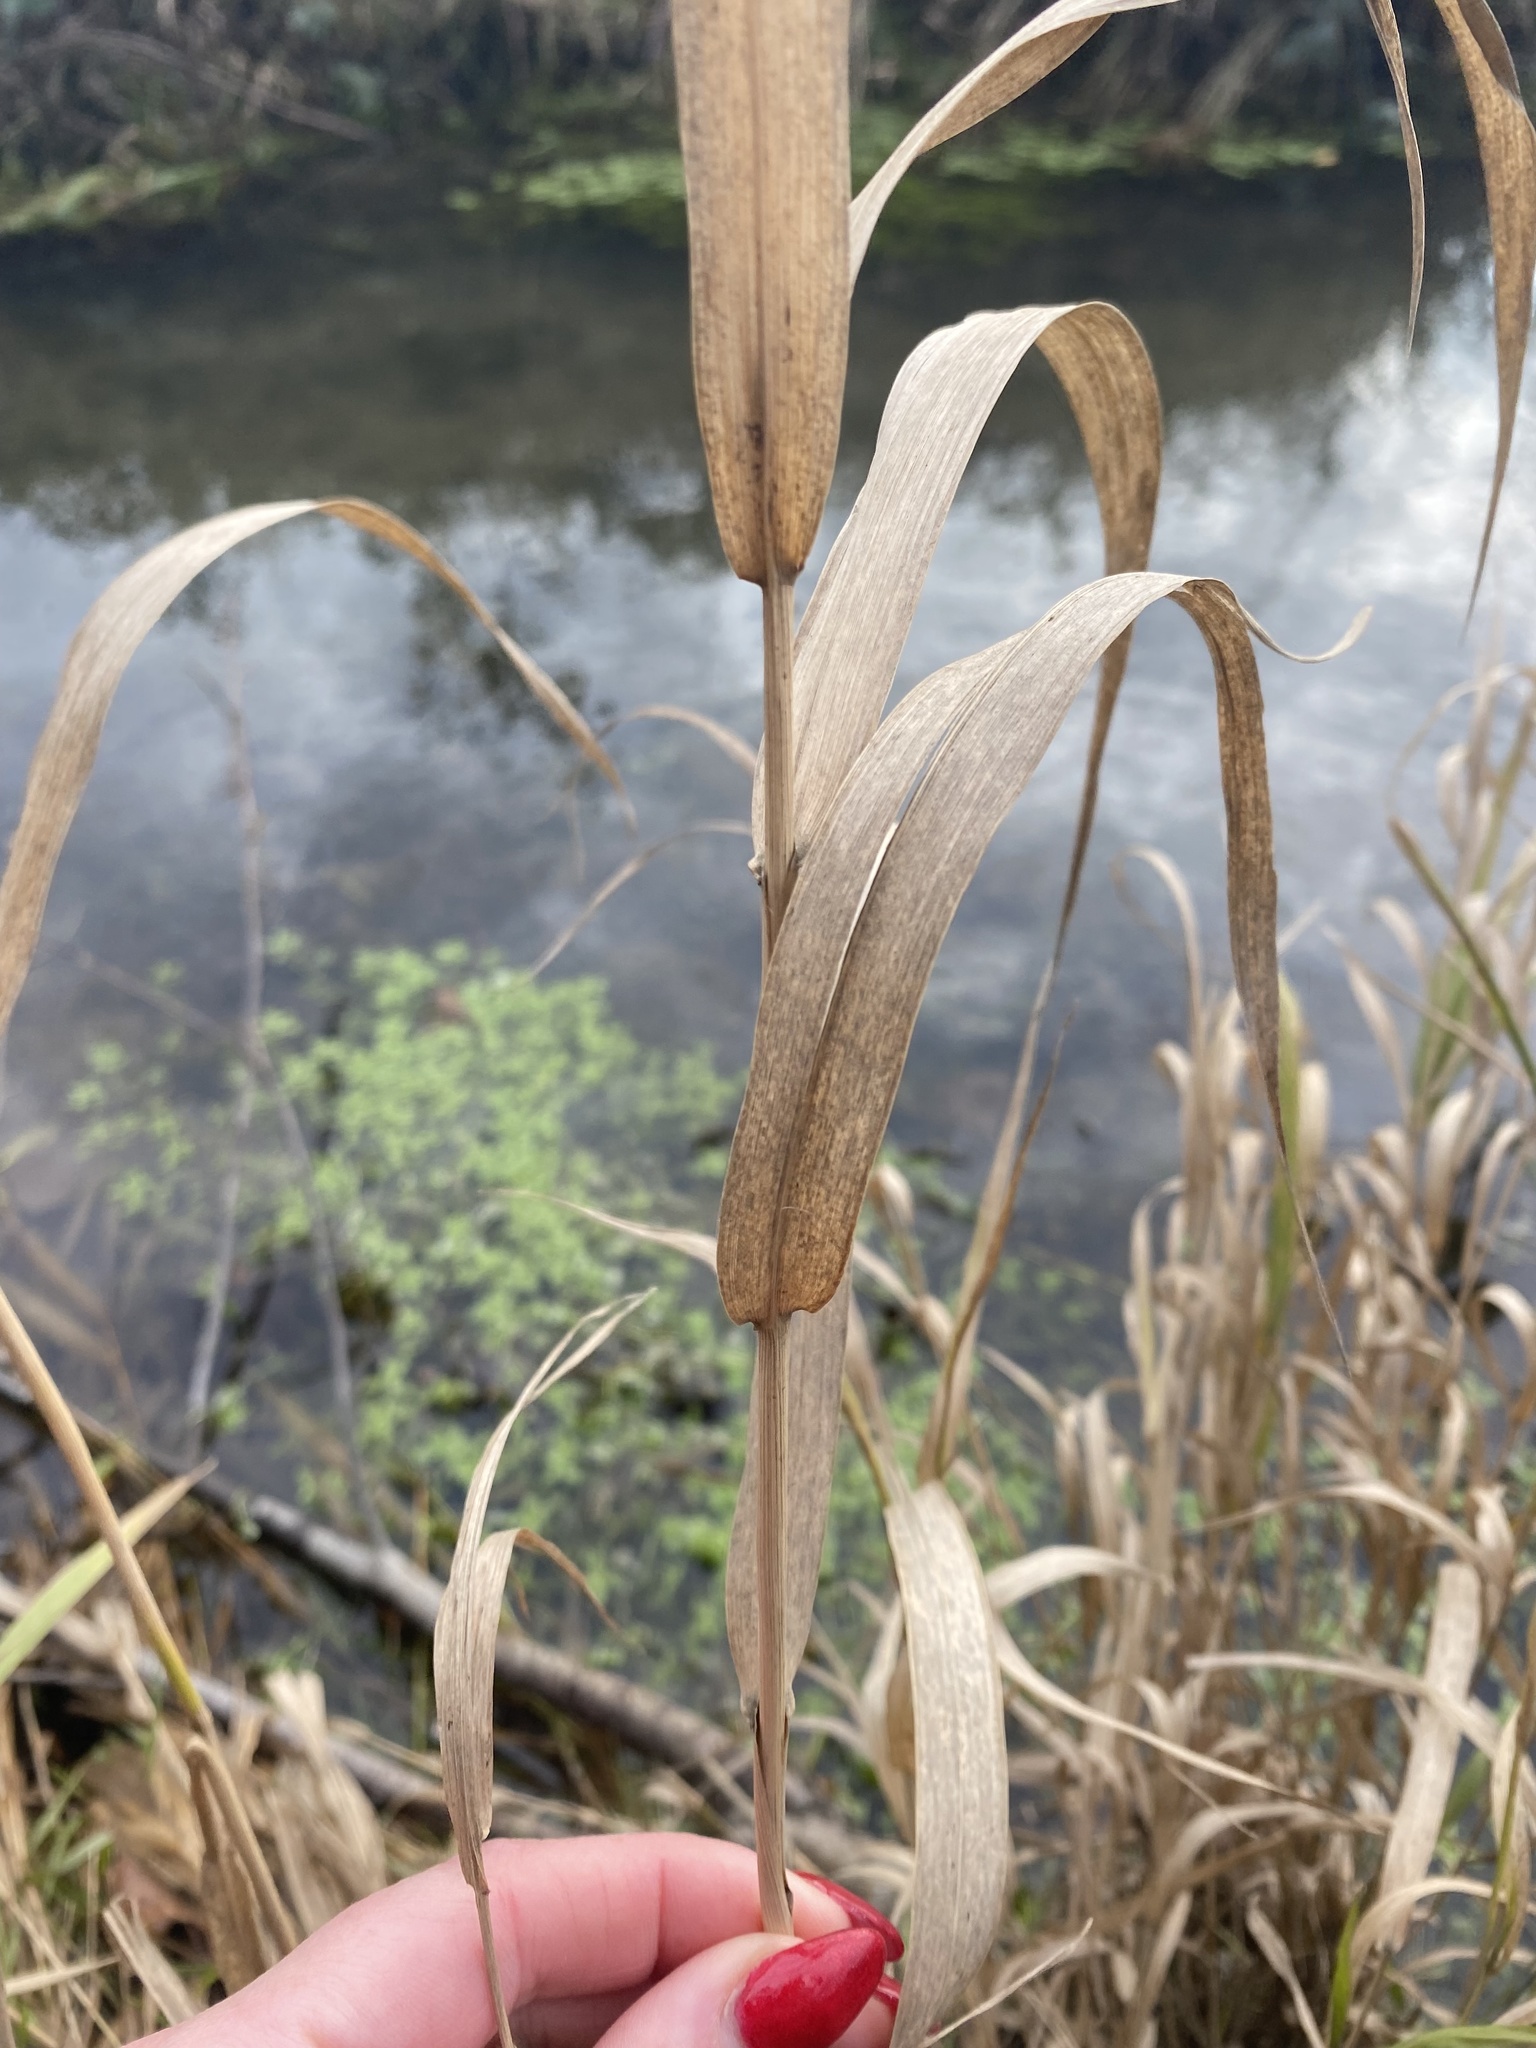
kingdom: Plantae
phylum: Tracheophyta
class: Liliopsida
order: Poales
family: Poaceae
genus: Phalaris
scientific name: Phalaris arundinacea
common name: Reed canary-grass
